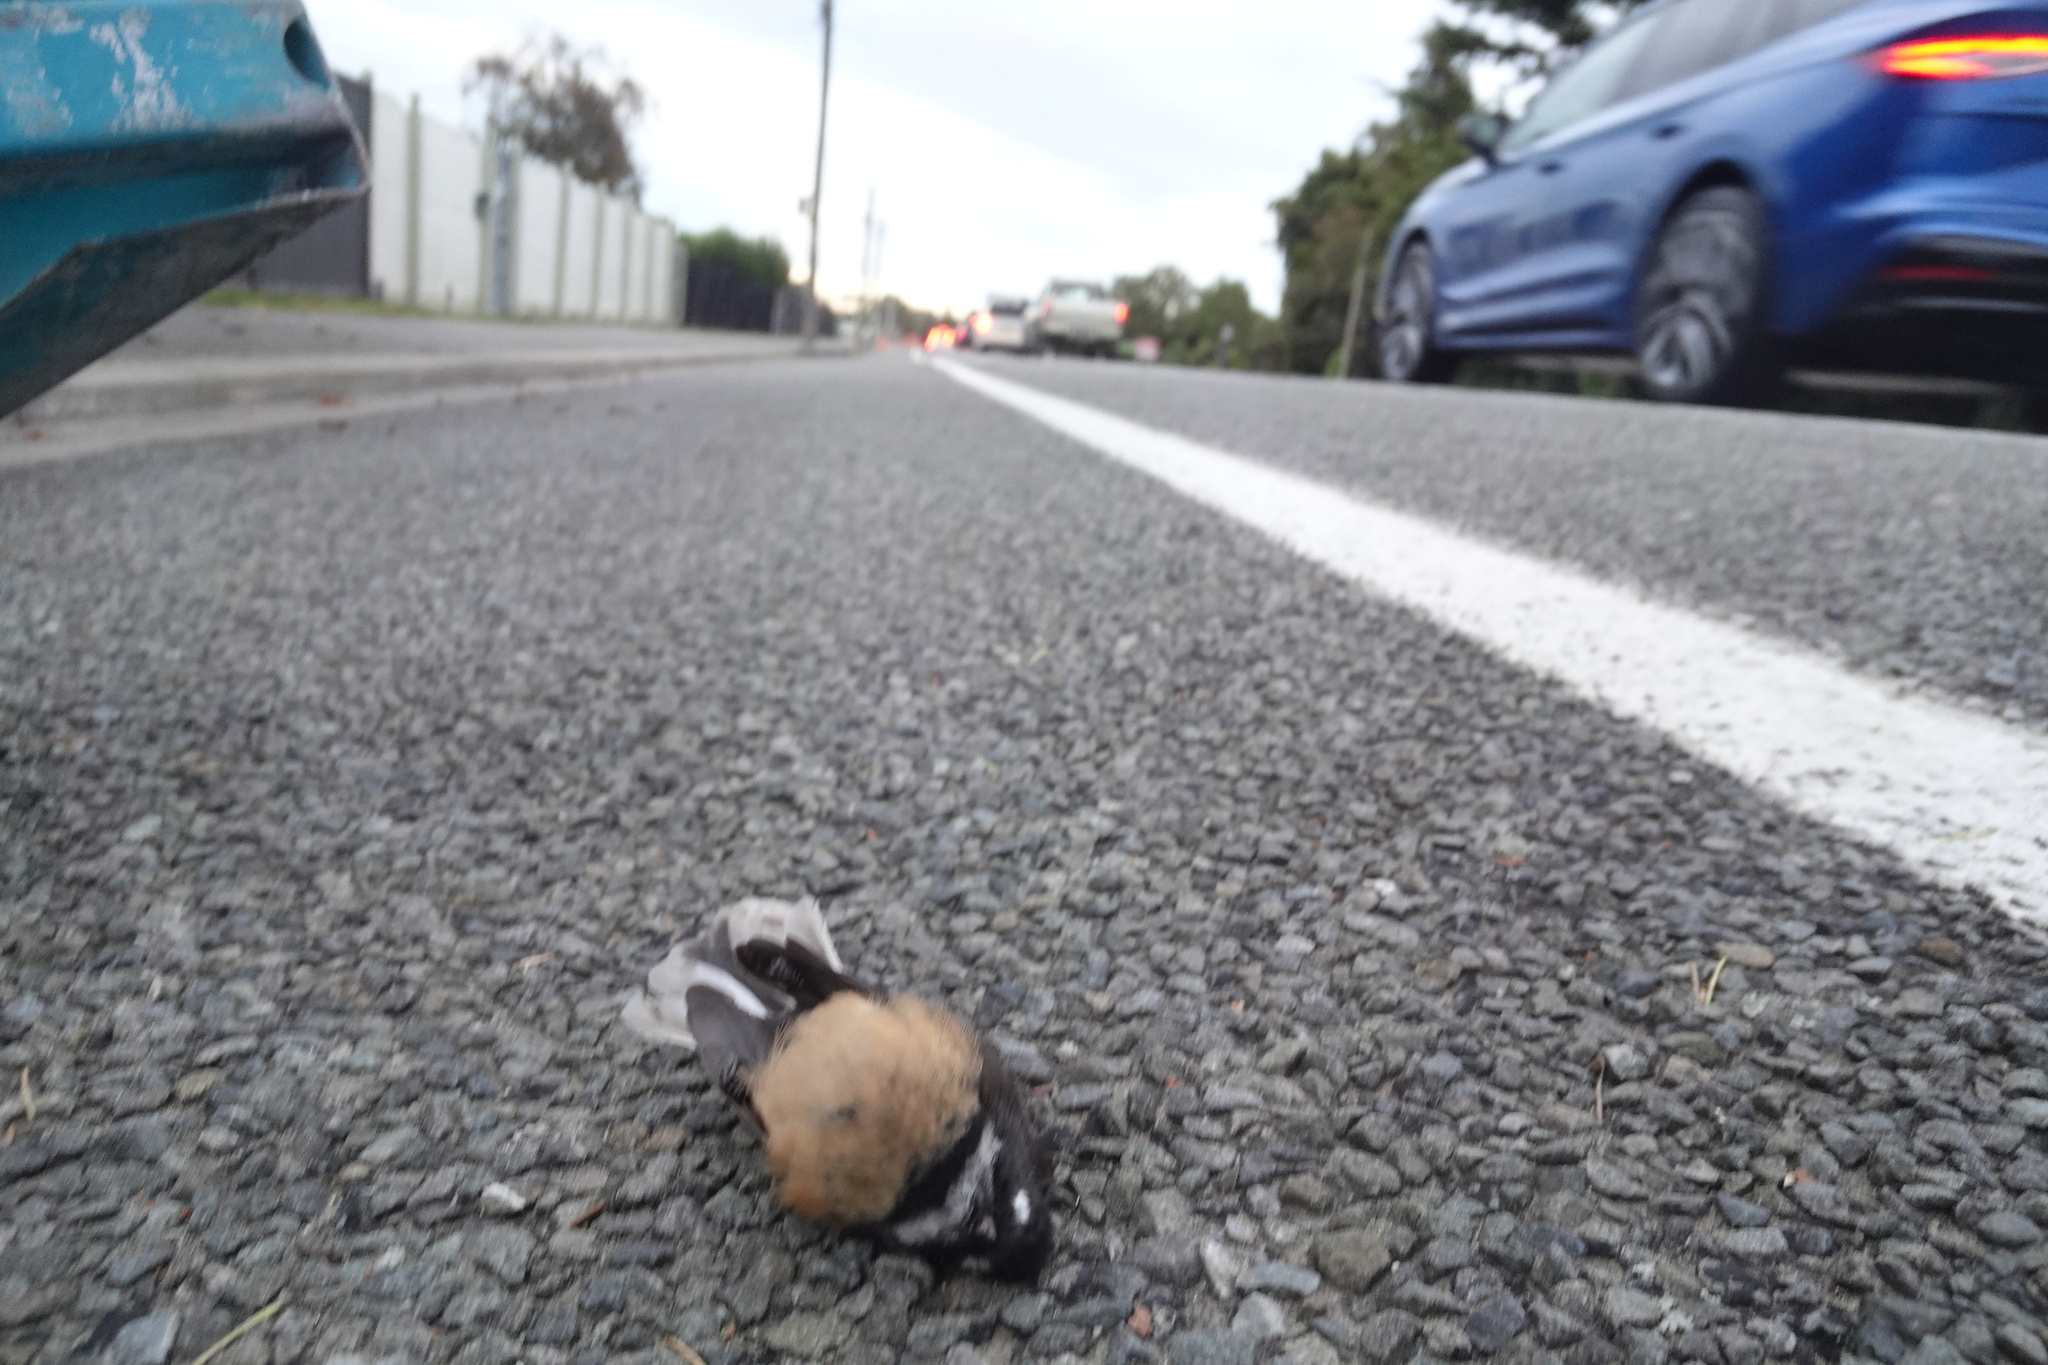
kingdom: Animalia
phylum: Chordata
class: Aves
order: Passeriformes
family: Rhipiduridae
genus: Rhipidura
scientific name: Rhipidura fuliginosa
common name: New zealand fantail
